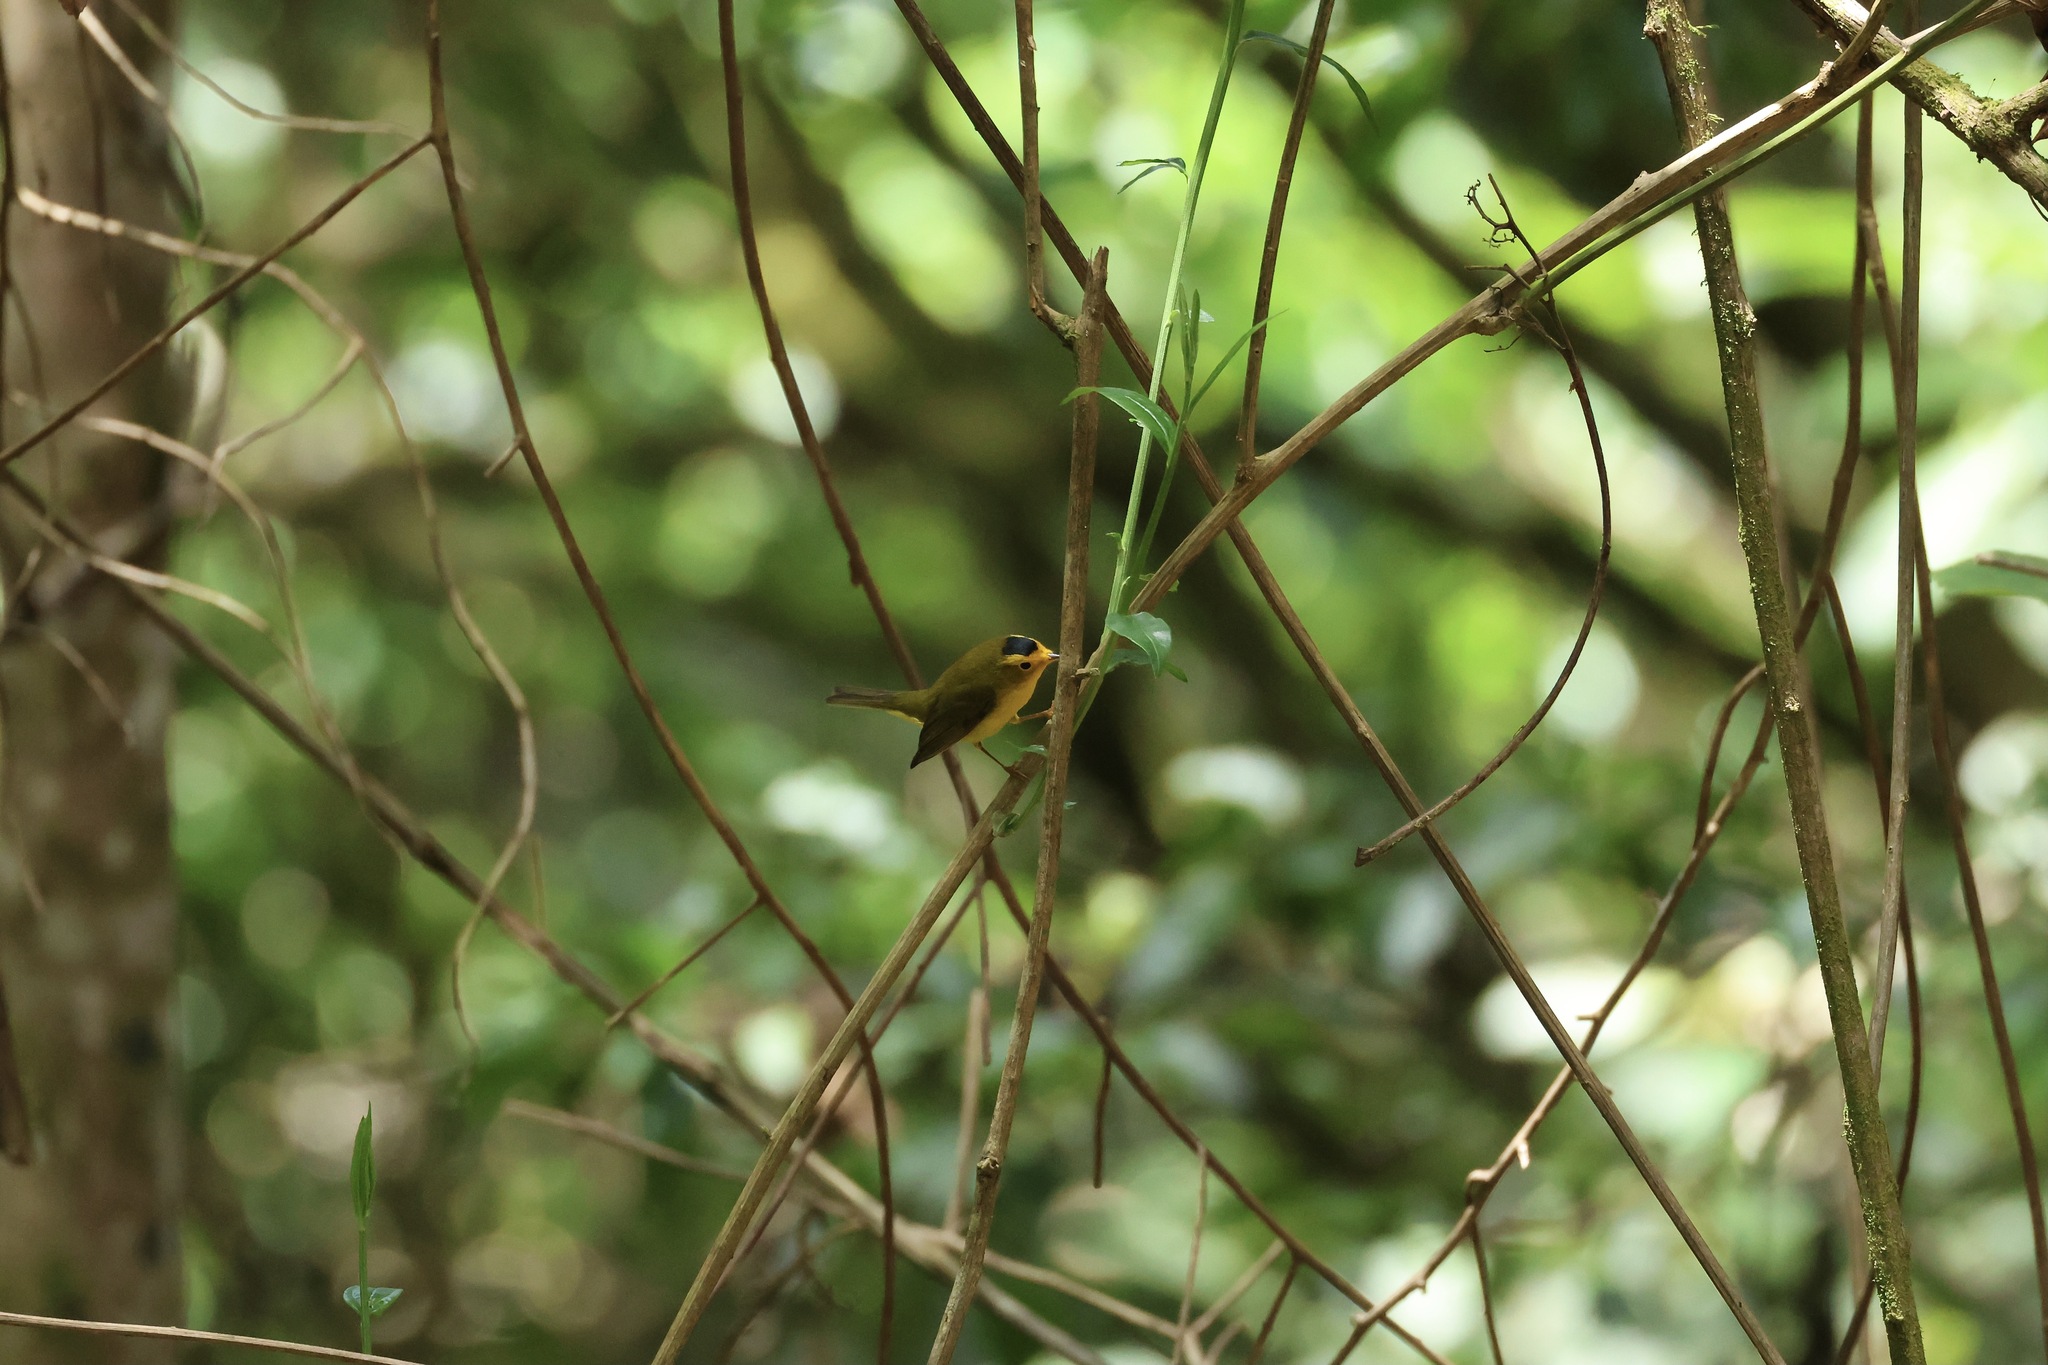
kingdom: Animalia
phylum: Chordata
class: Aves
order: Passeriformes
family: Parulidae
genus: Cardellina
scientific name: Cardellina pusilla
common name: Wilson's warbler
